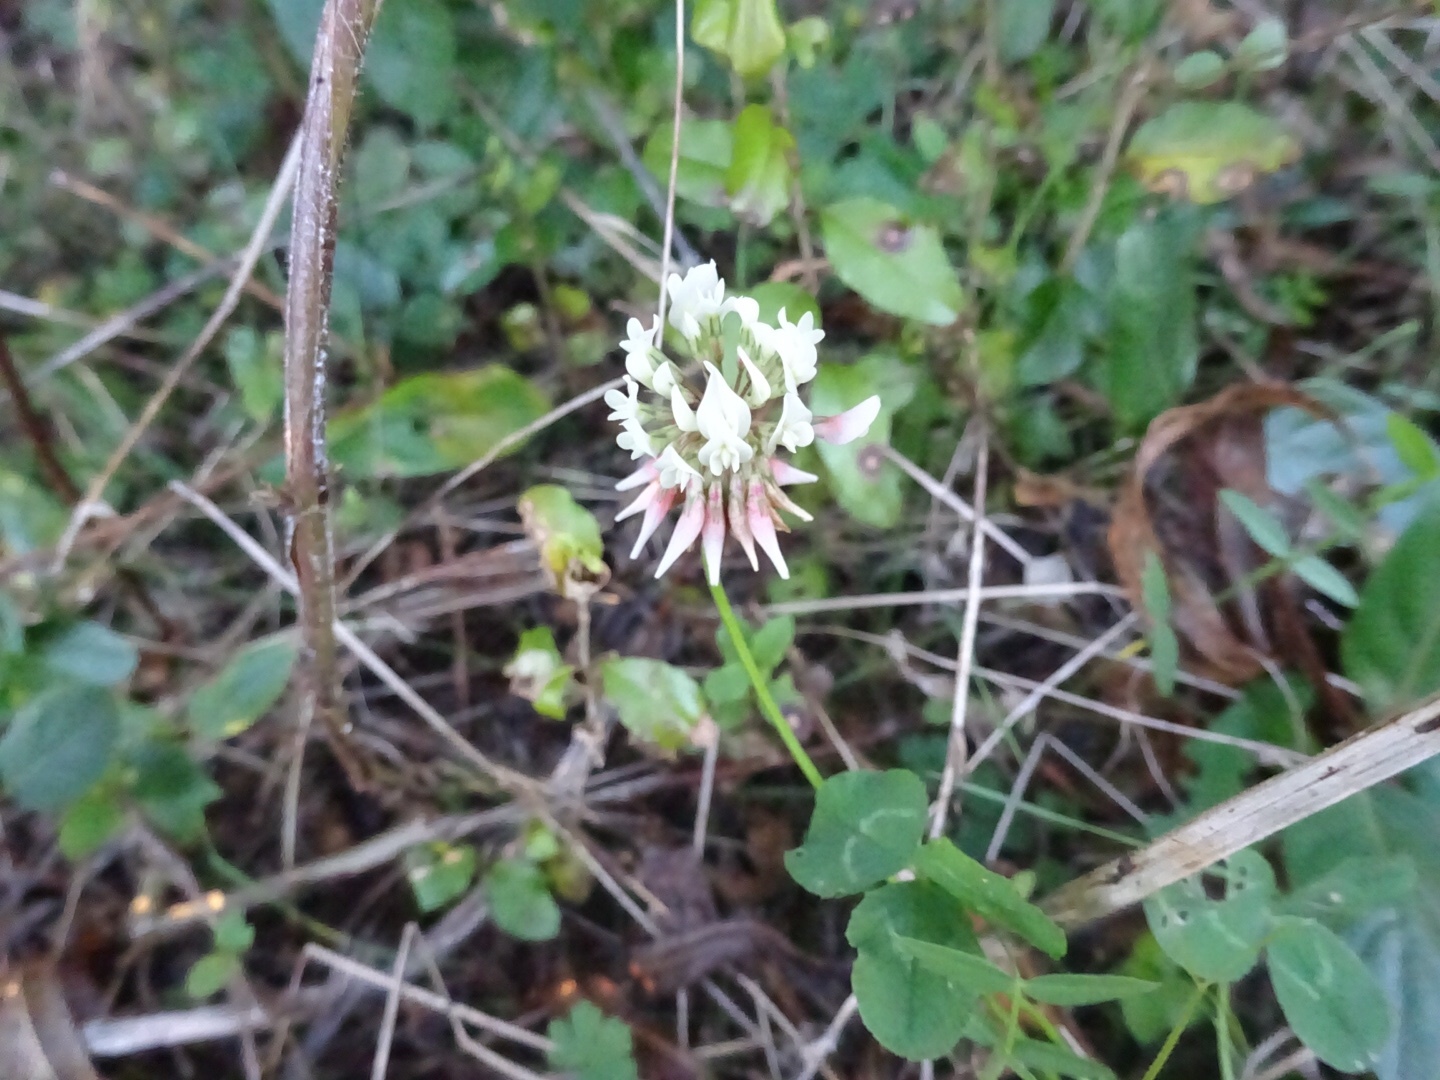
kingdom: Plantae
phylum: Tracheophyta
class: Magnoliopsida
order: Fabales
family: Fabaceae
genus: Trifolium
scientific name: Trifolium repens
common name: White clover
